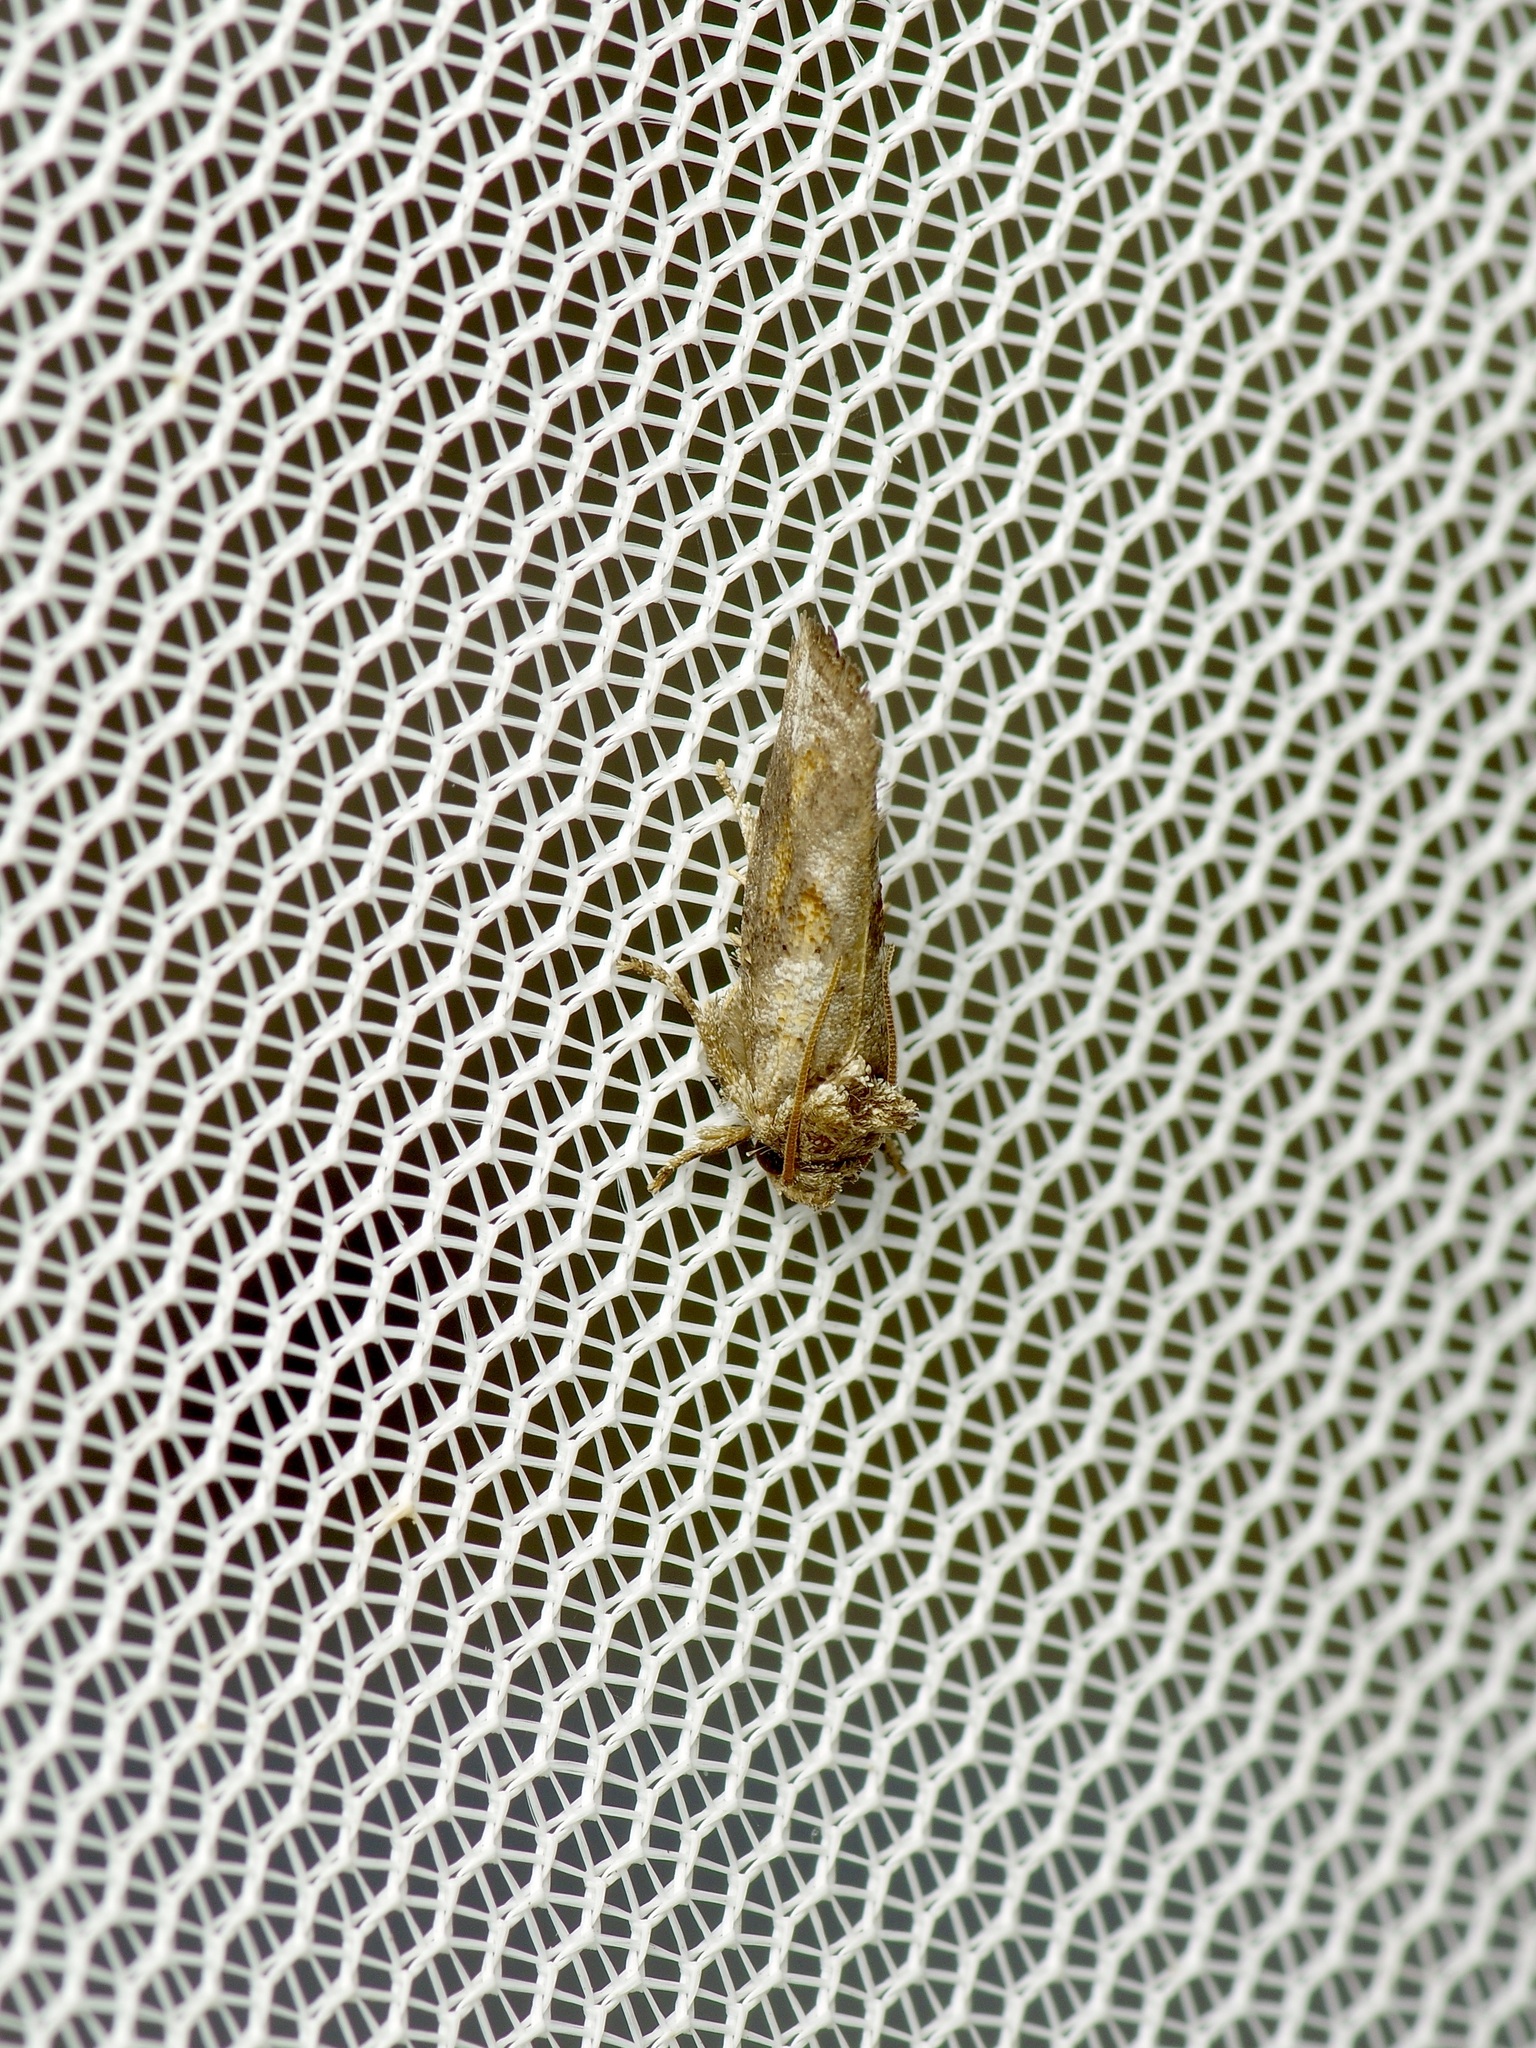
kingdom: Animalia
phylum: Arthropoda
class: Insecta
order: Lepidoptera
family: Tineidae
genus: Acrolophus
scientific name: Acrolophus piger
